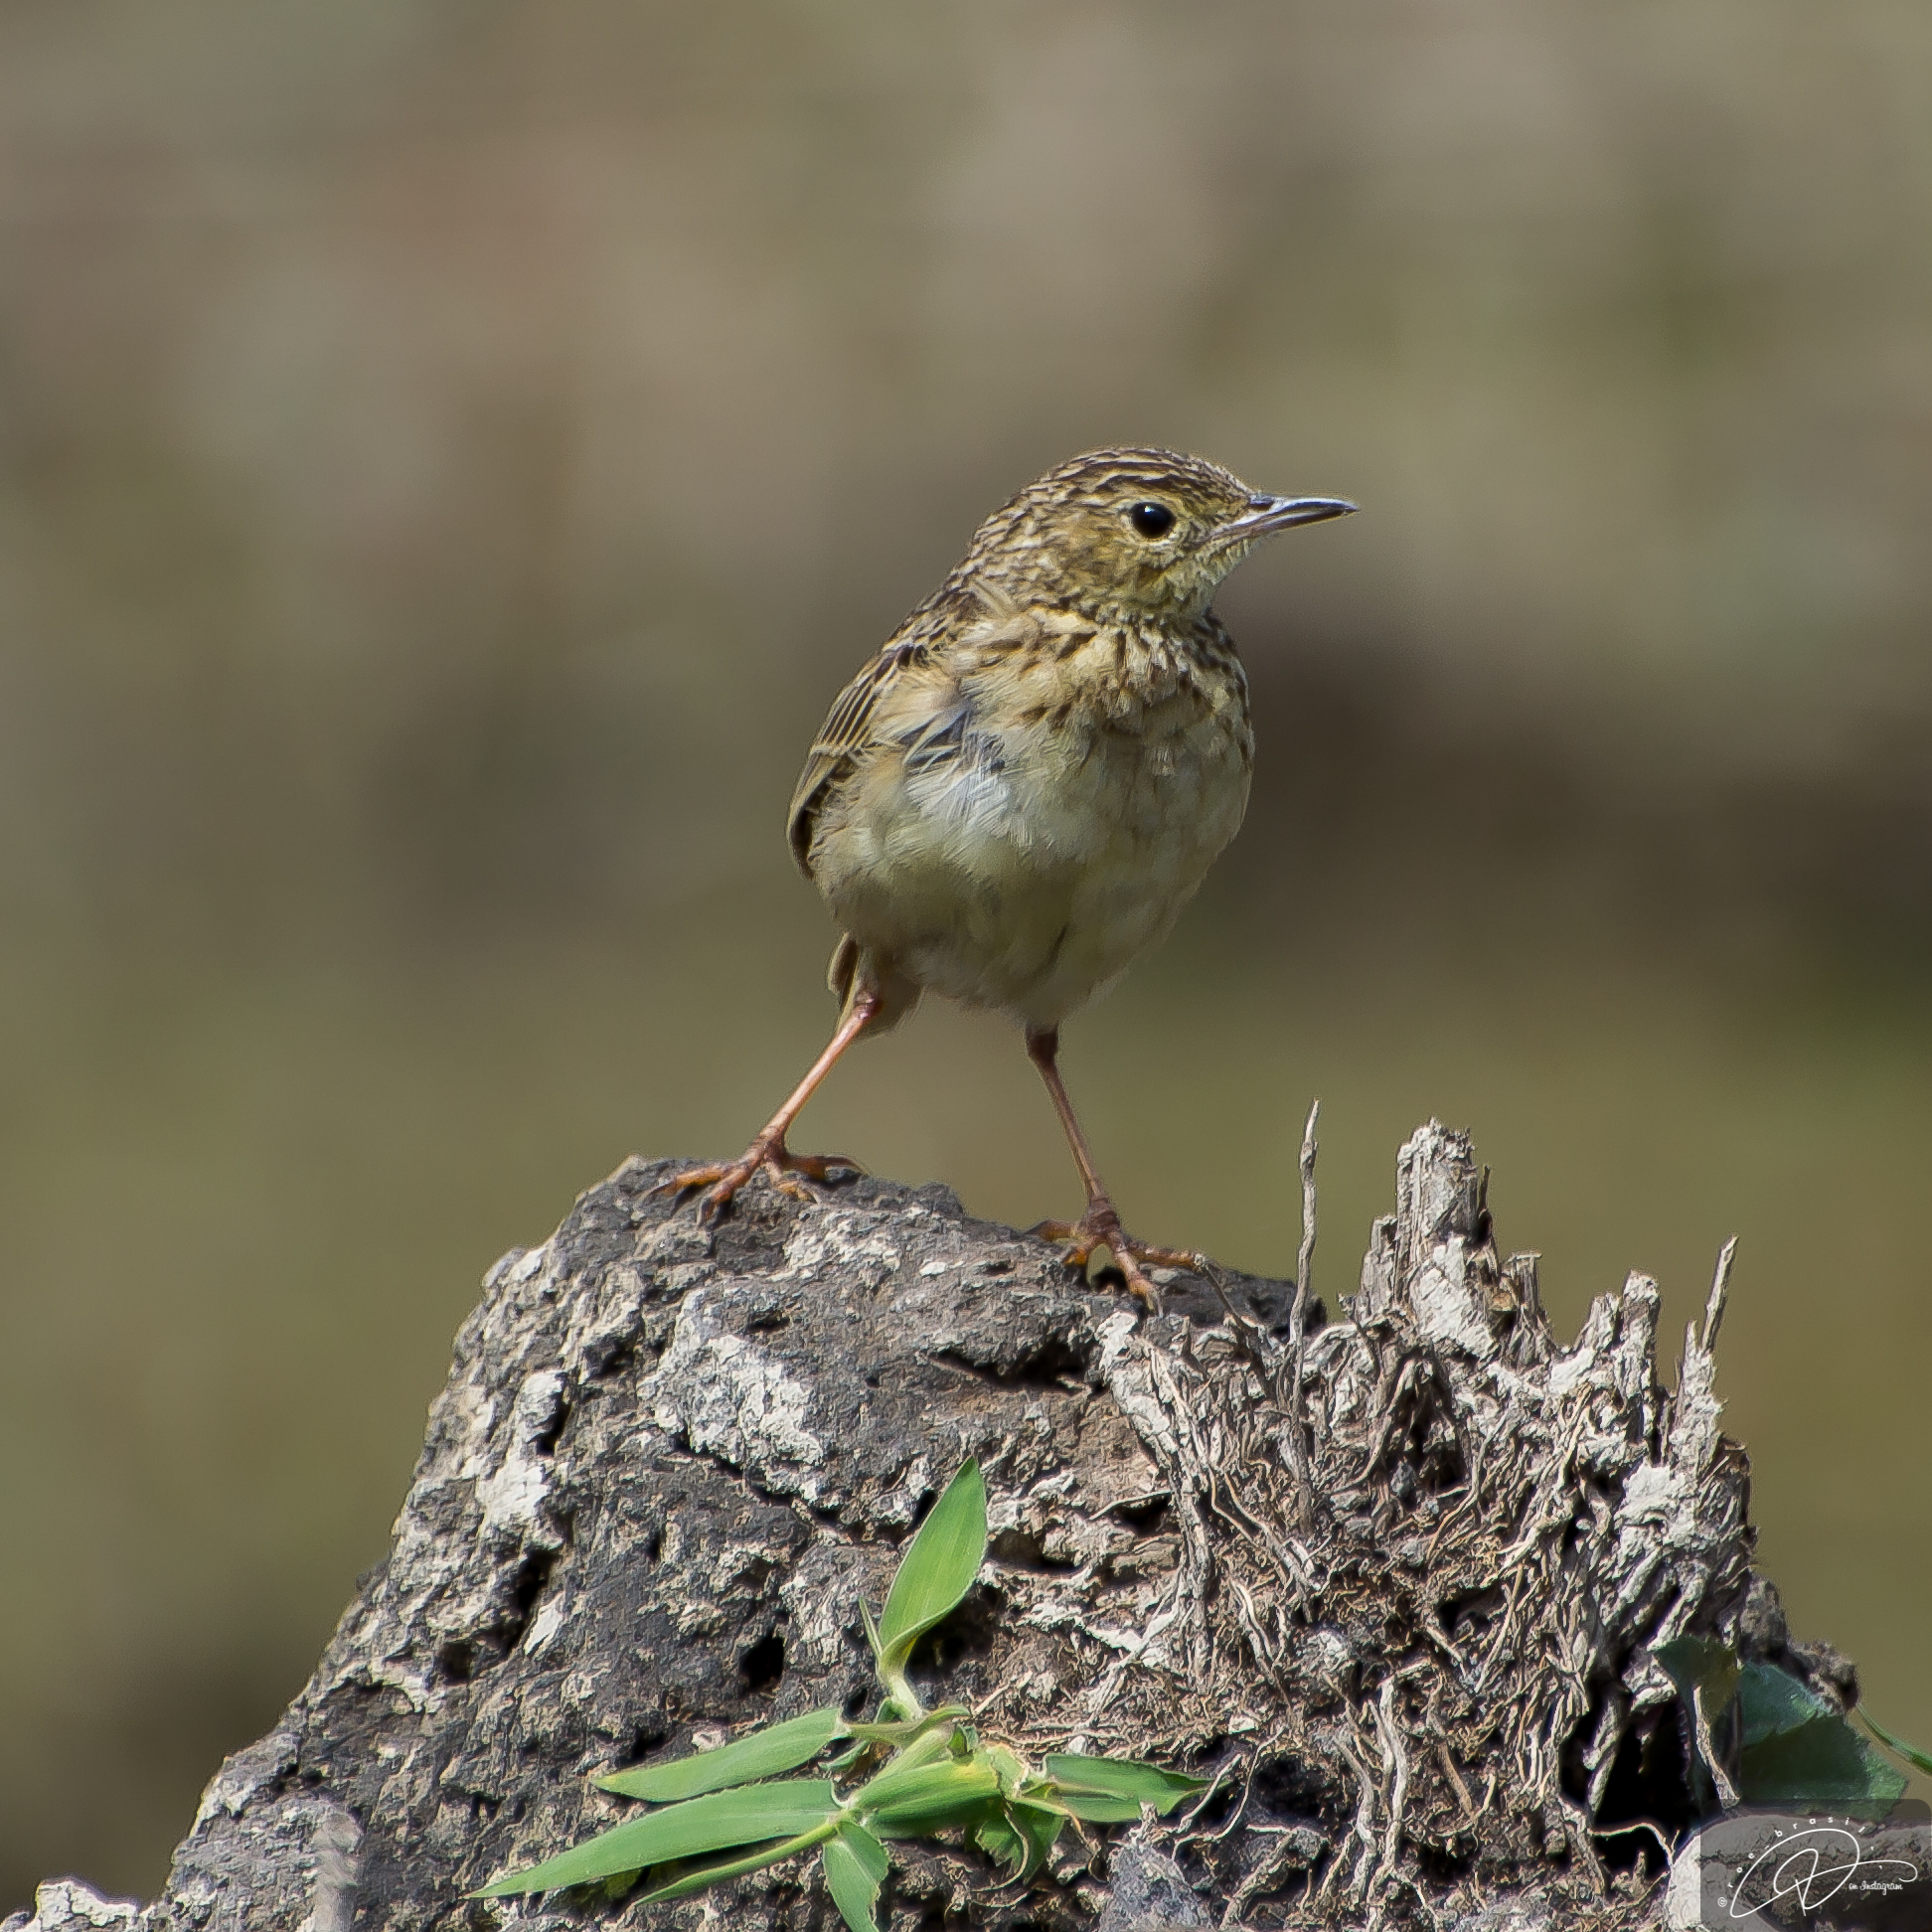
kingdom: Animalia
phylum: Chordata
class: Aves
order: Passeriformes
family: Motacillidae
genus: Anthus
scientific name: Anthus chii
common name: Yellowish pipit
